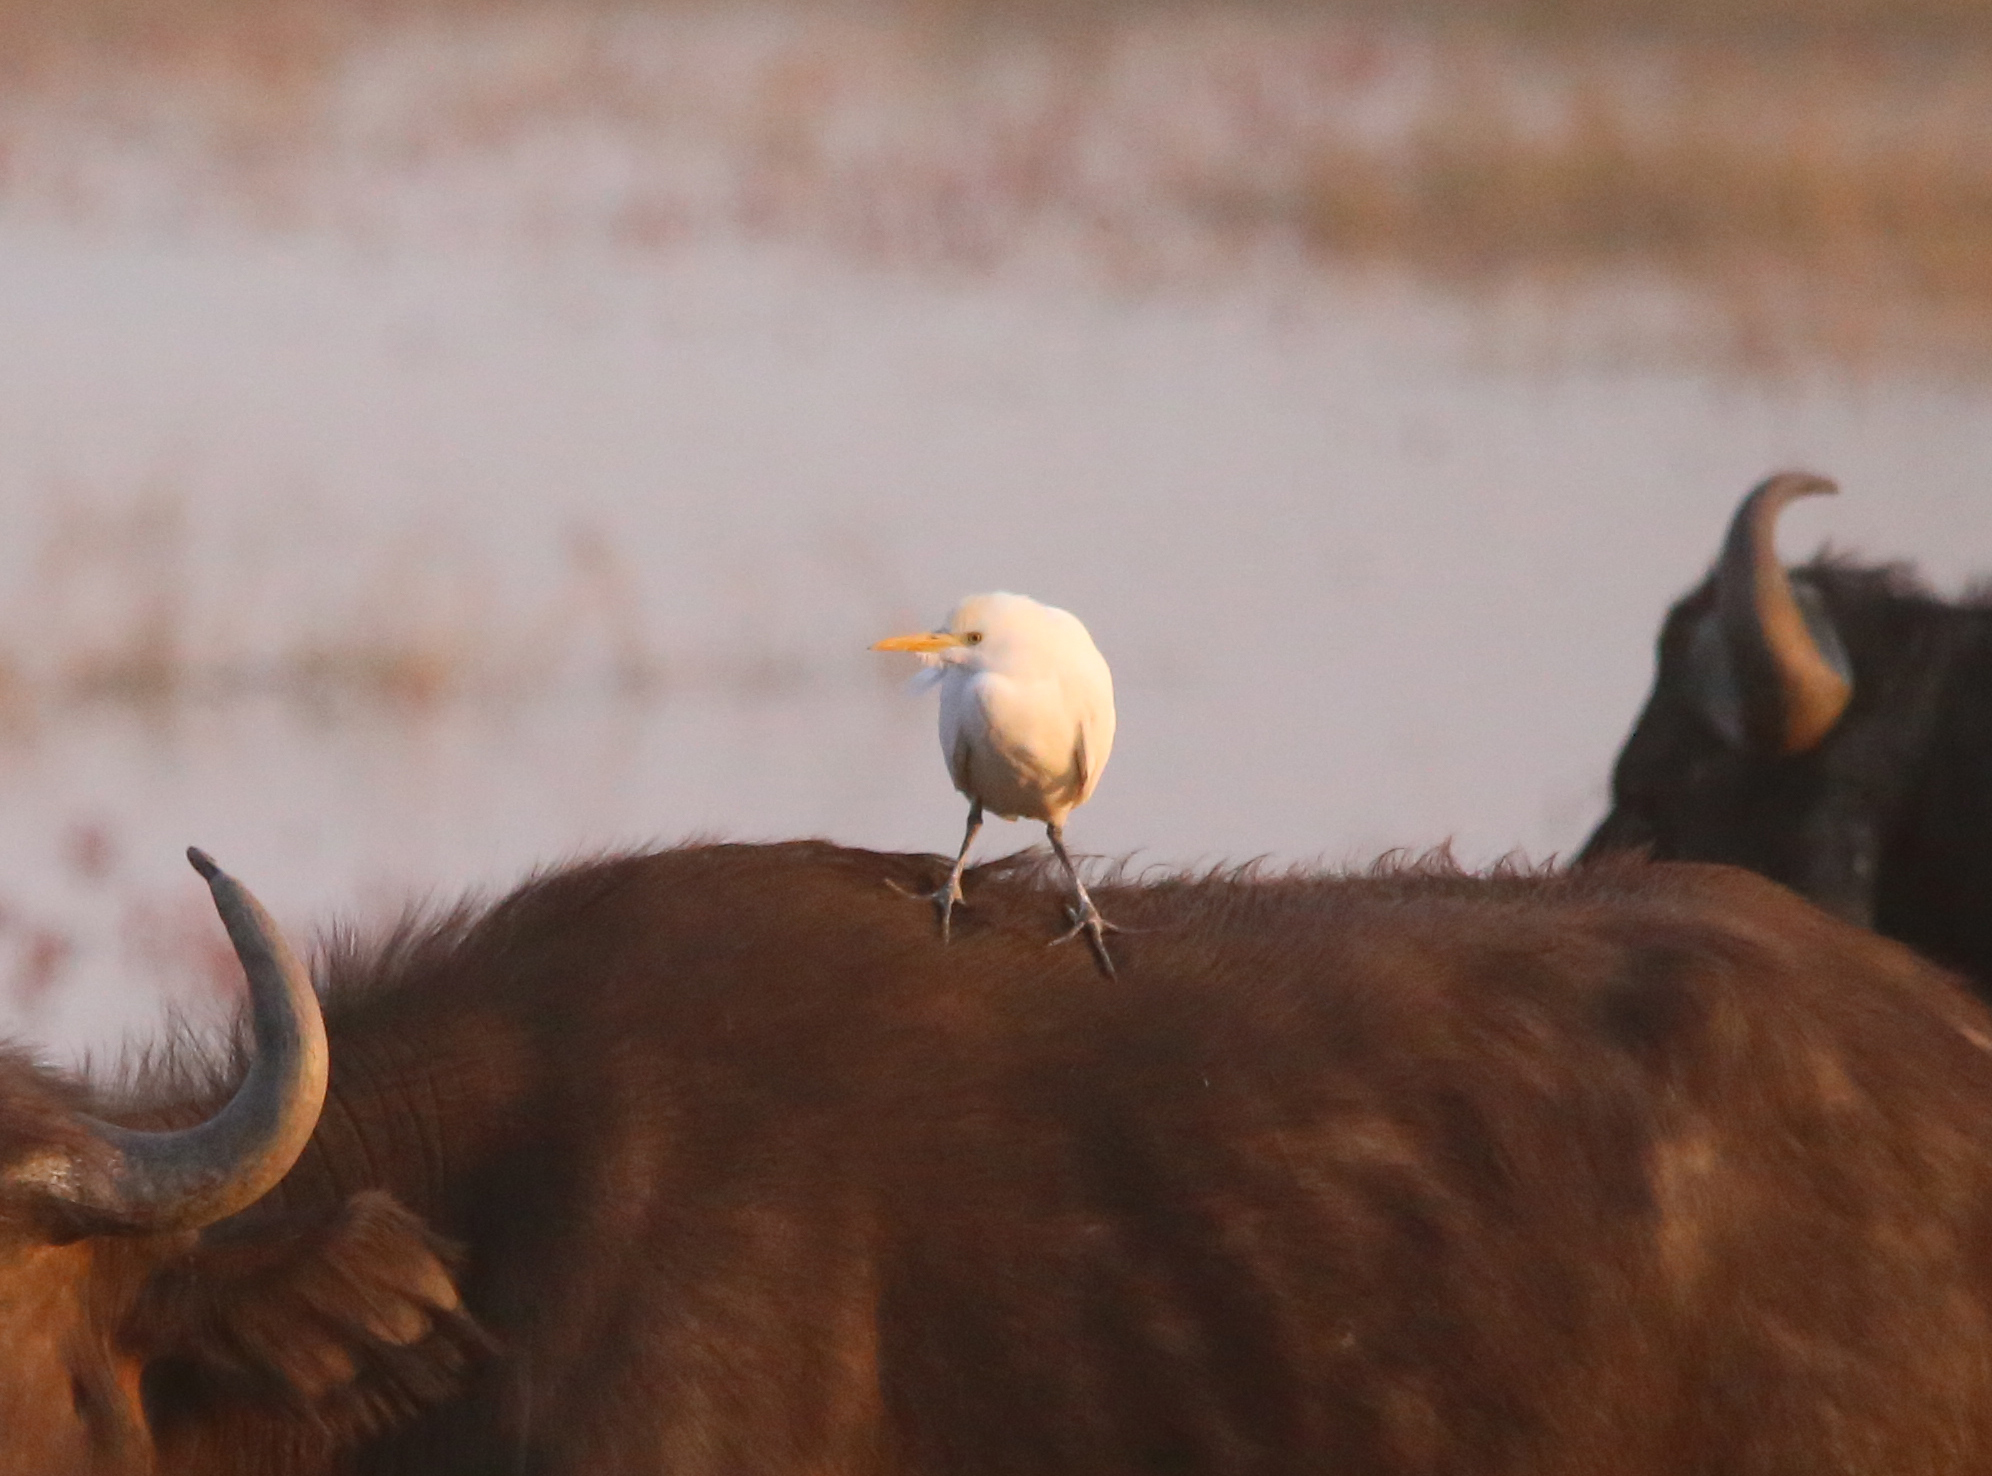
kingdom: Animalia
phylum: Chordata
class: Aves
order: Pelecaniformes
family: Ardeidae
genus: Bubulcus
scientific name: Bubulcus ibis
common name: Cattle egret
